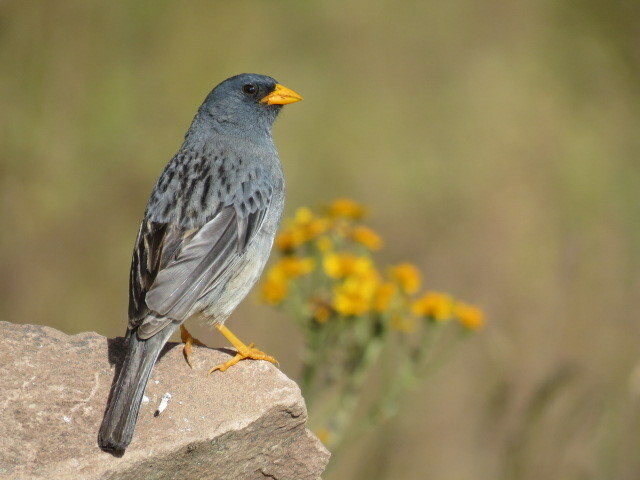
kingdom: Animalia
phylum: Chordata
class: Aves
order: Passeriformes
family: Thraupidae
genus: Porphyrospiza
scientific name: Porphyrospiza alaudina
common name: Band-tailed sierra finch
